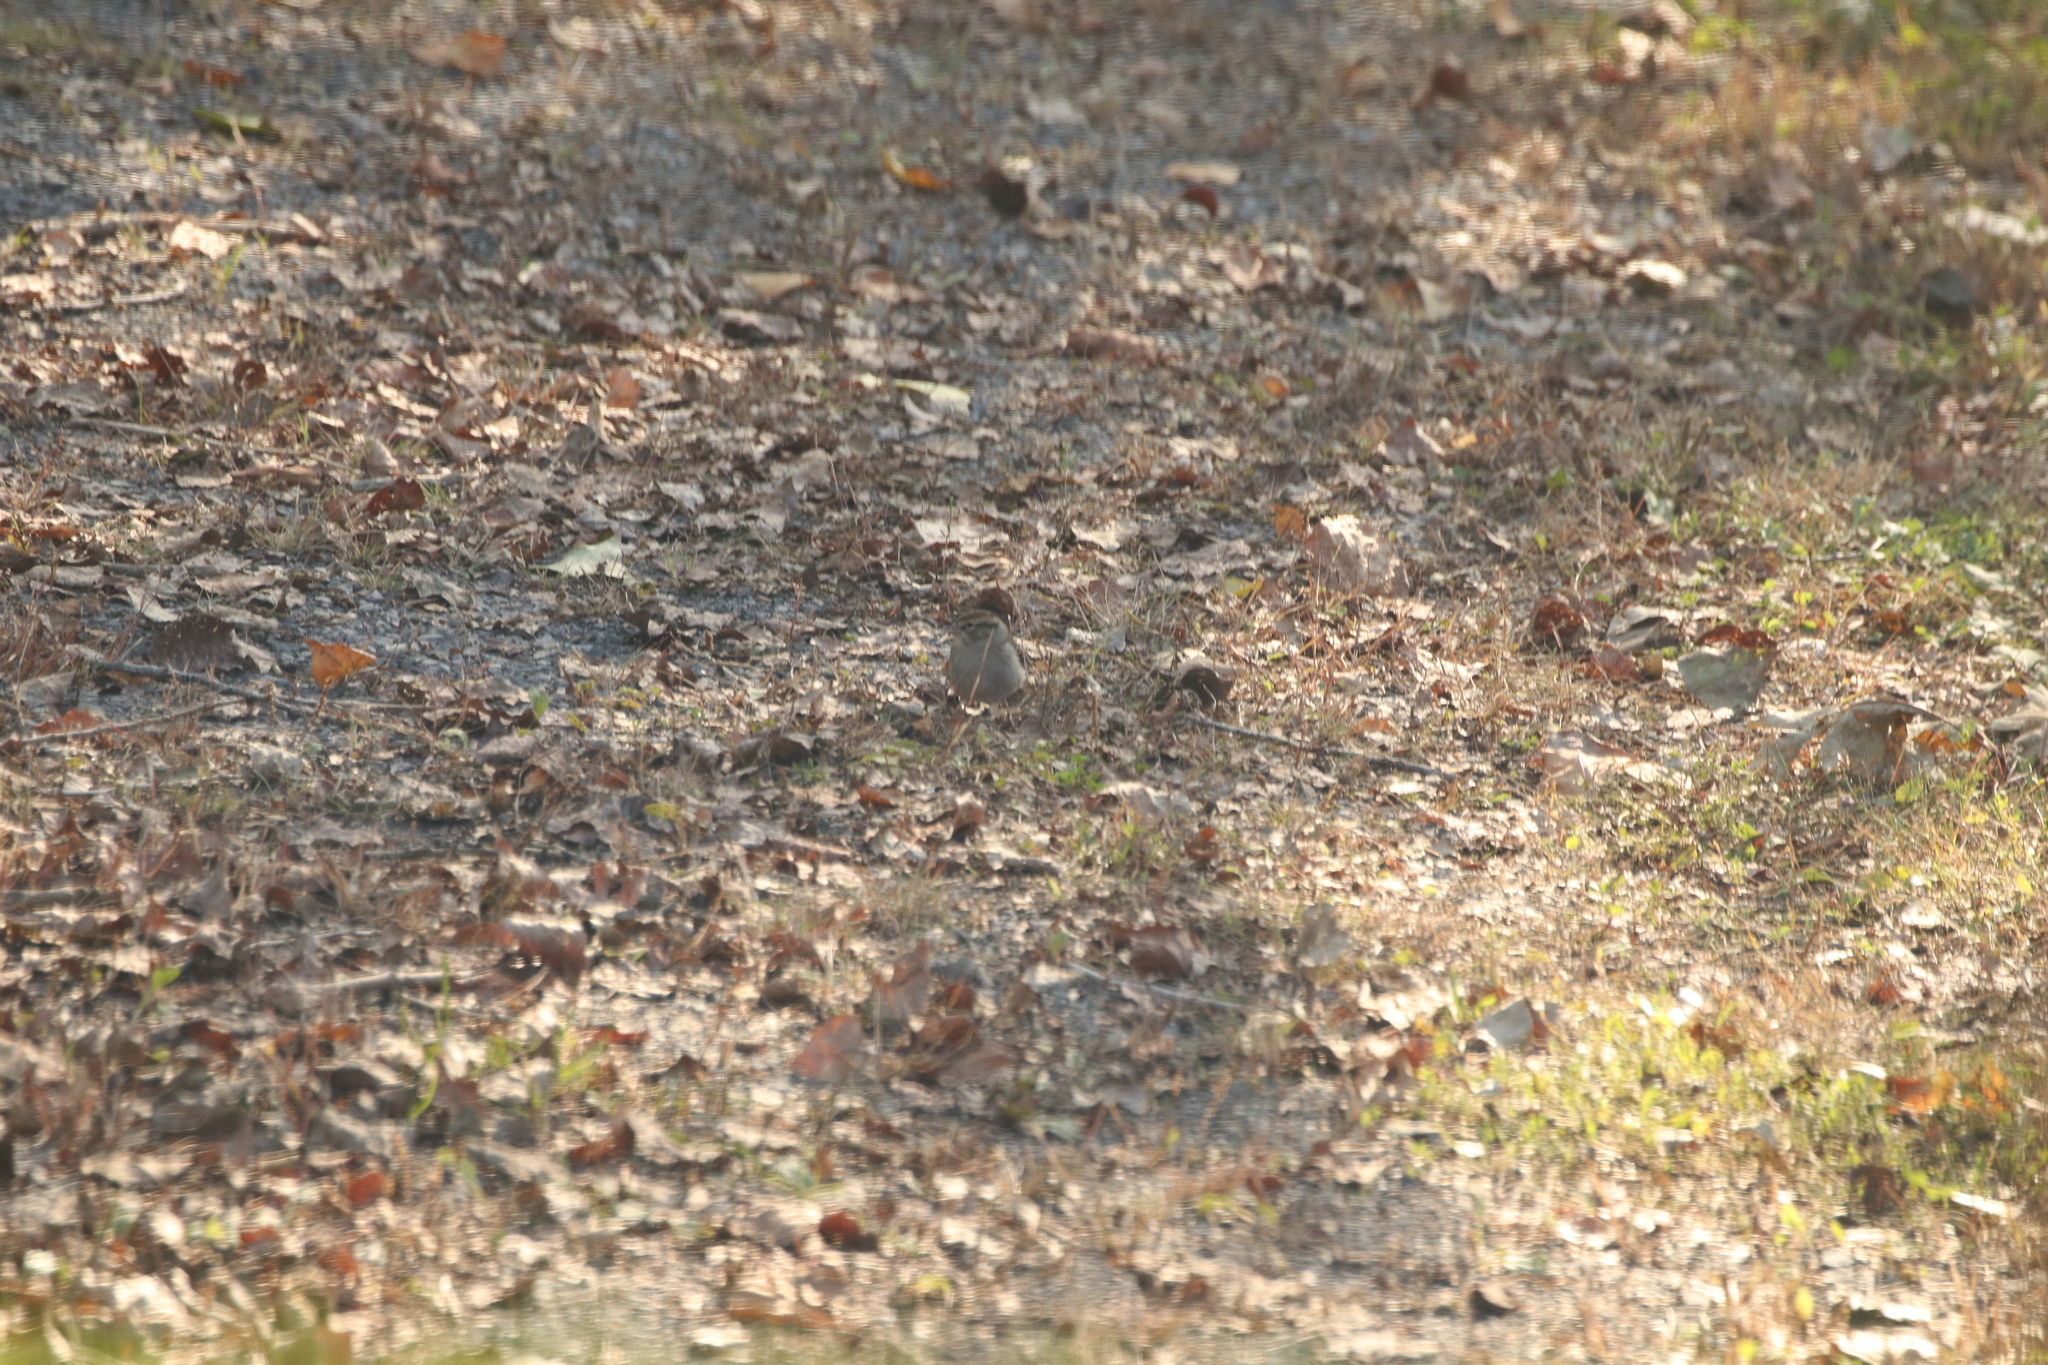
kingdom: Animalia
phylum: Chordata
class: Aves
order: Passeriformes
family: Passerellidae
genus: Spizella
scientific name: Spizella passerina
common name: Chipping sparrow
